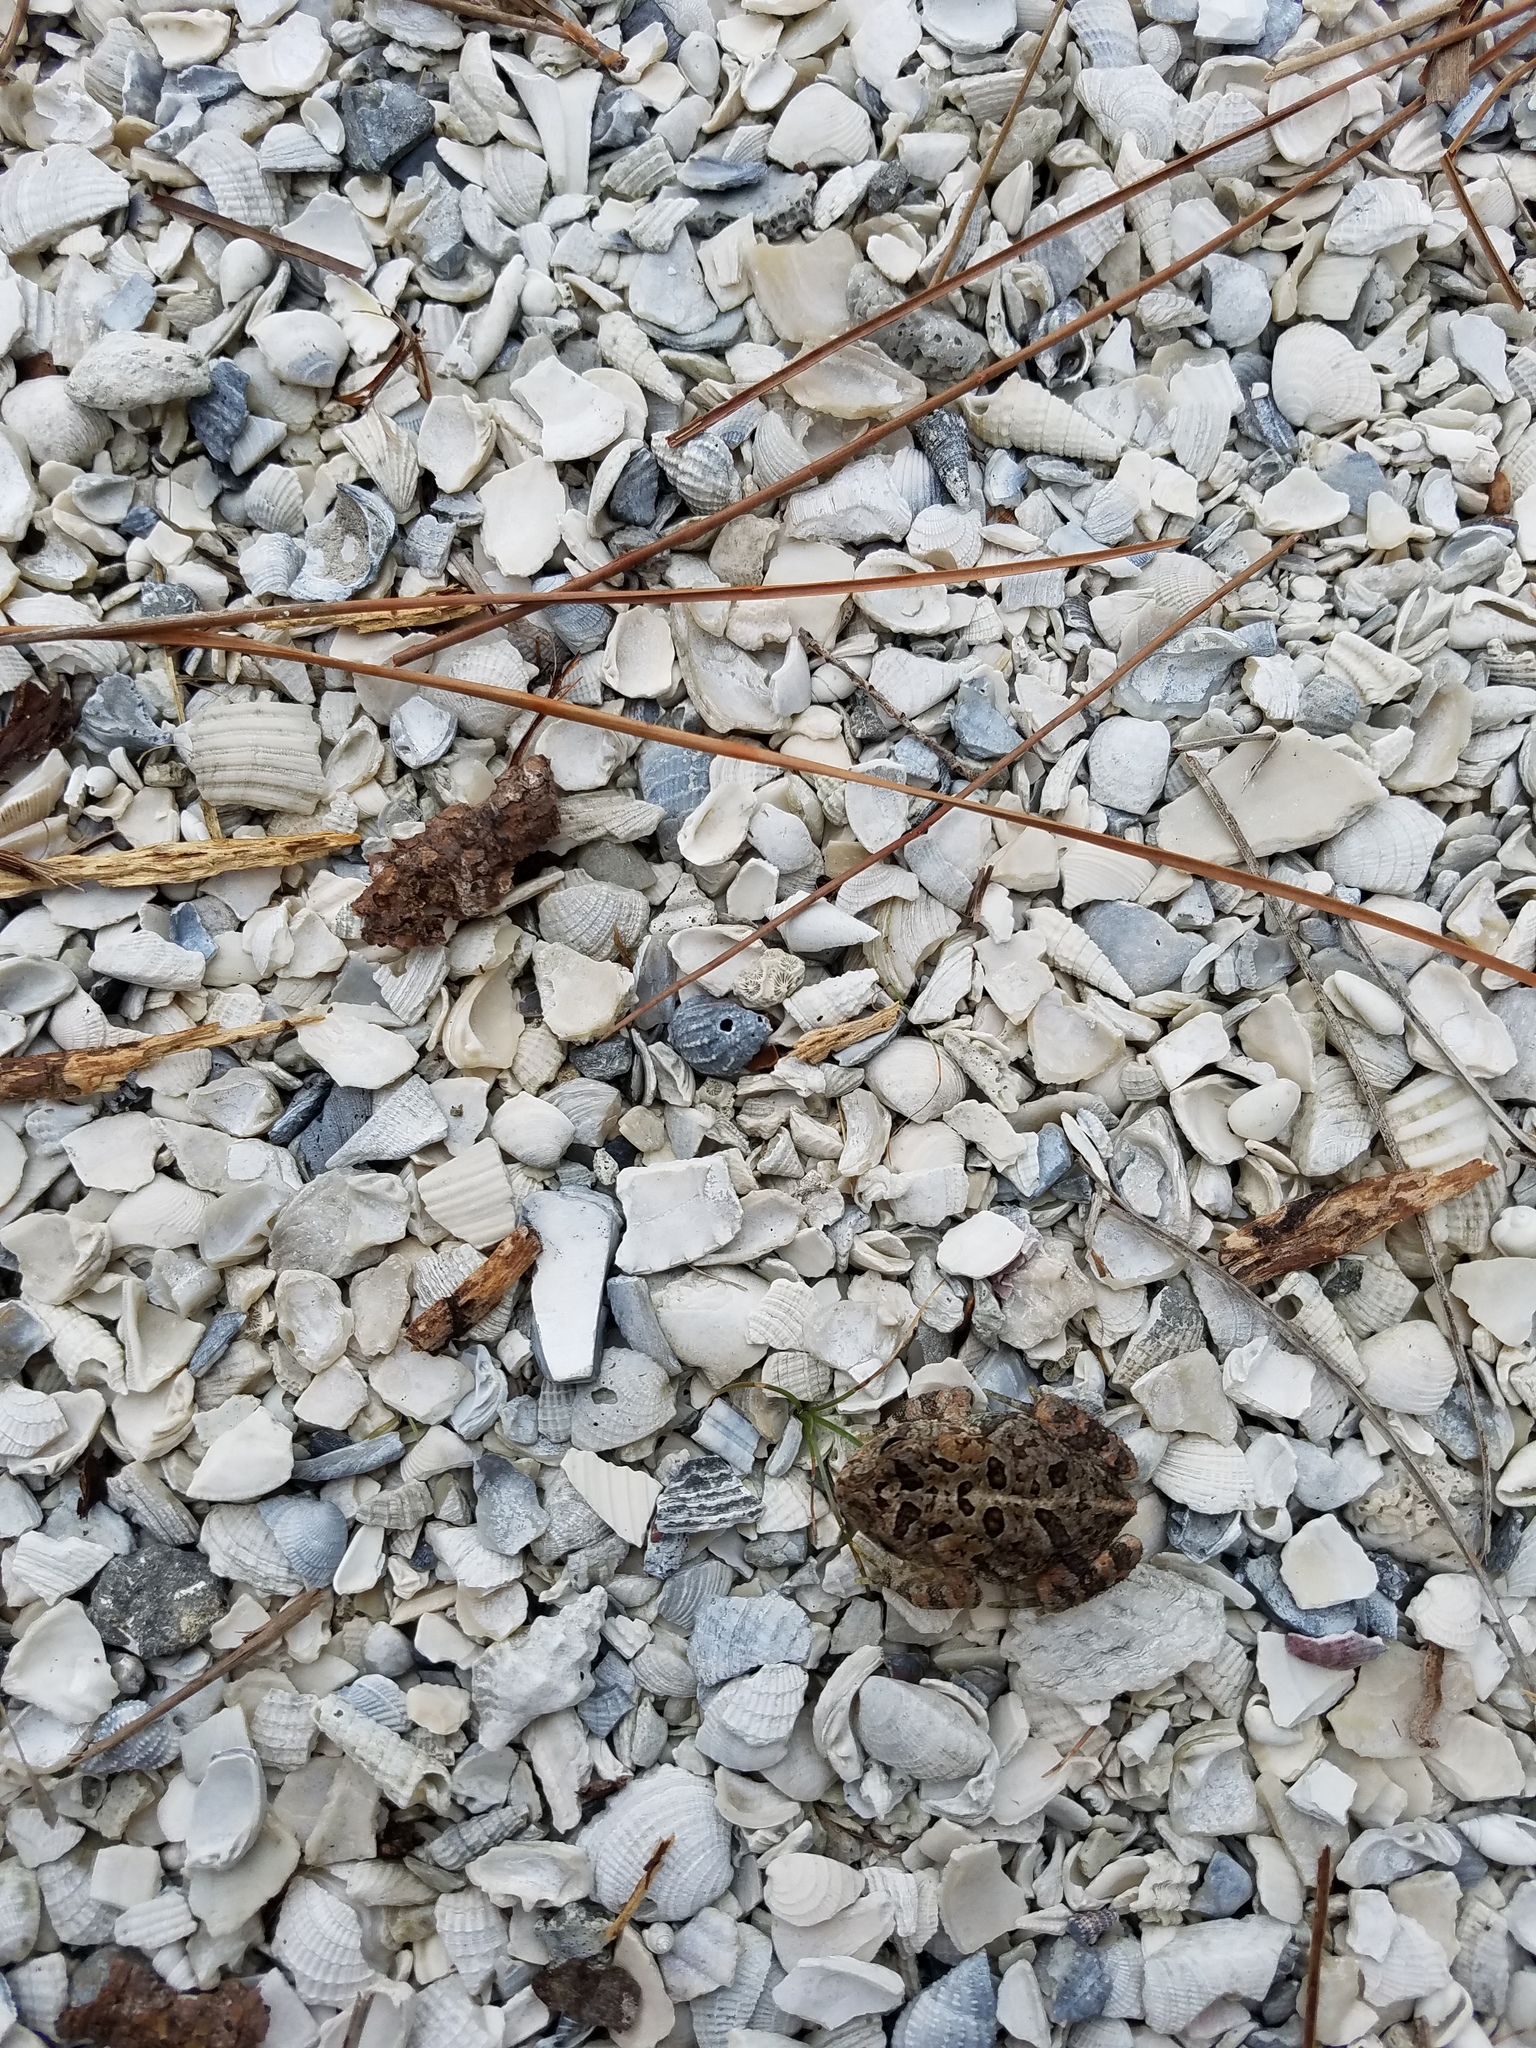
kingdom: Animalia
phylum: Chordata
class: Amphibia
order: Anura
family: Bufonidae
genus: Anaxyrus
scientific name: Anaxyrus terrestris
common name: Southern toad
